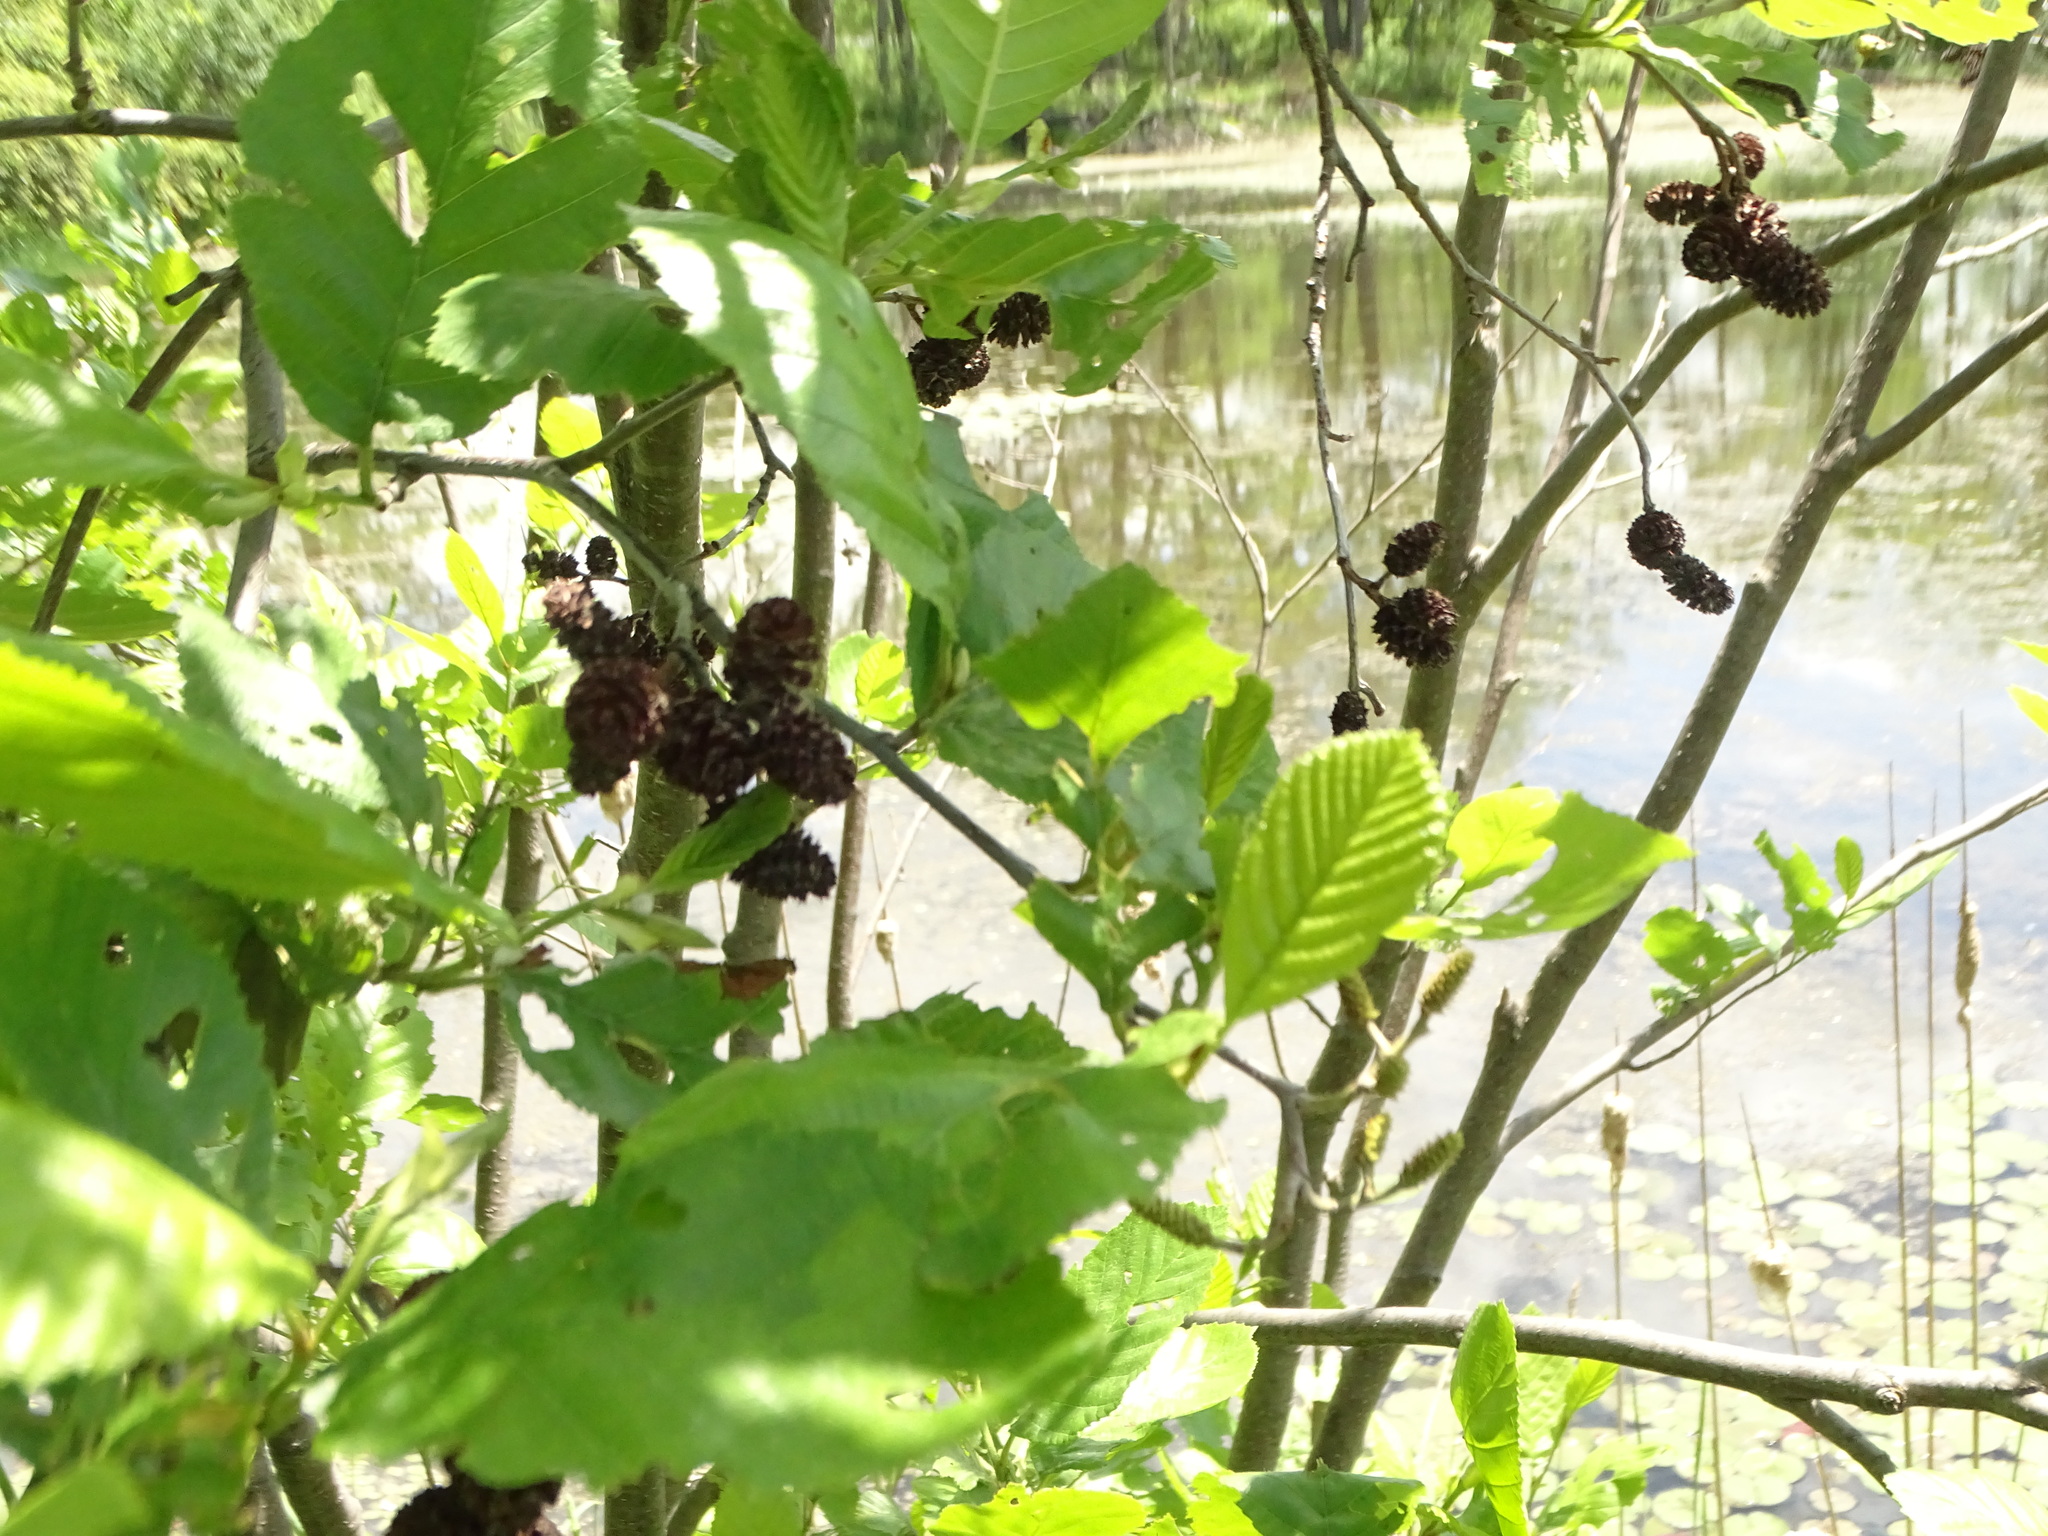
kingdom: Plantae
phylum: Tracheophyta
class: Magnoliopsida
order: Fagales
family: Betulaceae
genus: Alnus
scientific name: Alnus incana
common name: Grey alder
